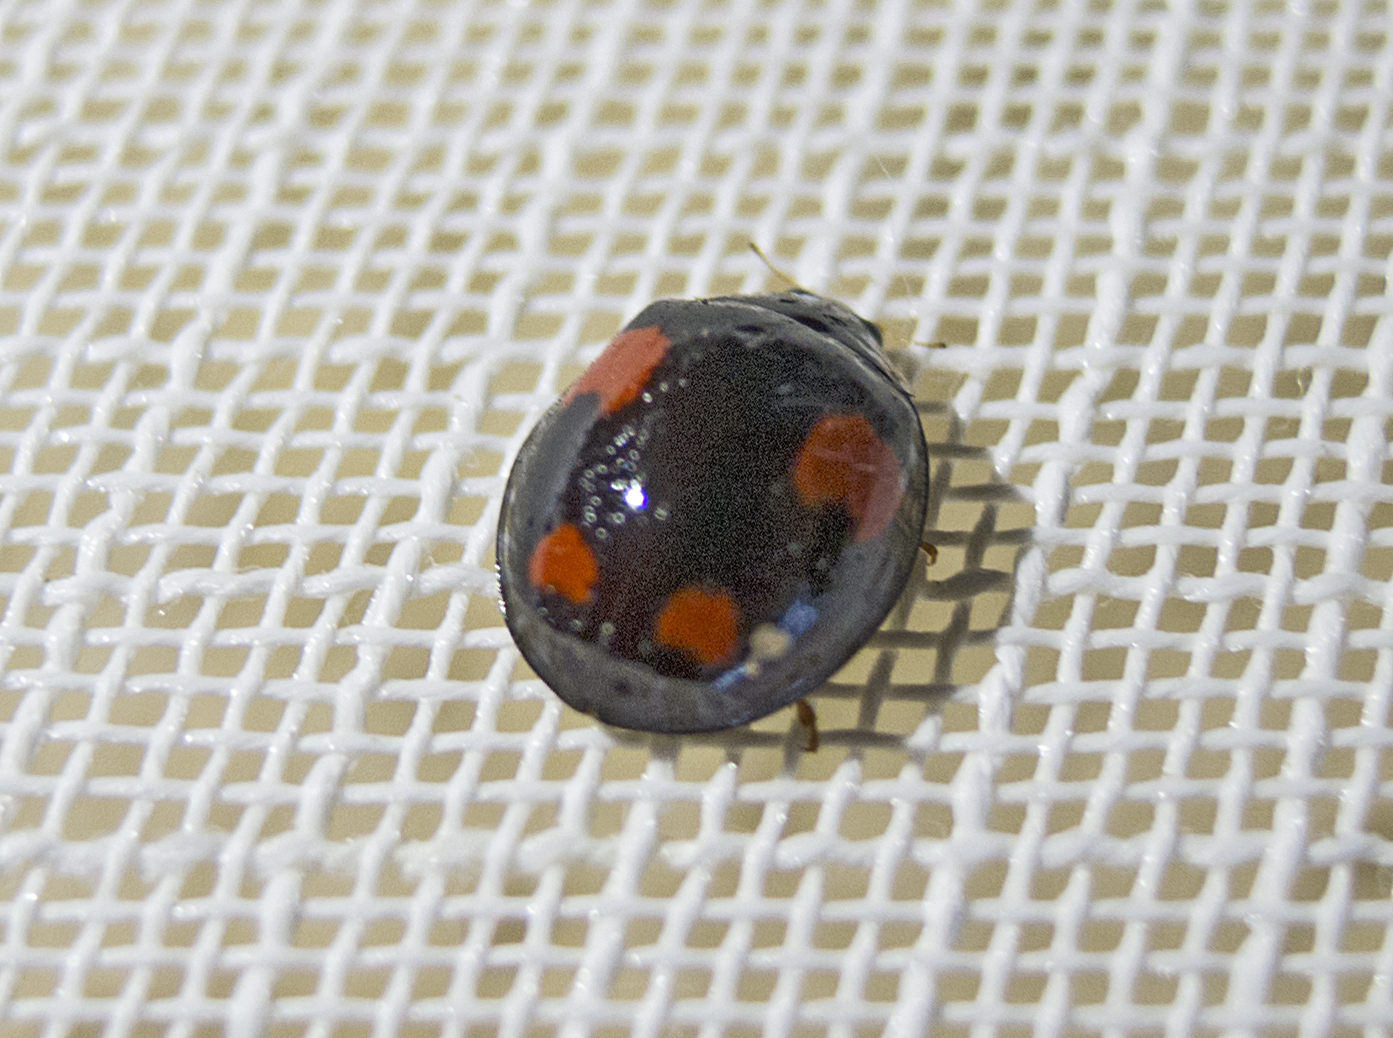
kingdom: Animalia
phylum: Arthropoda
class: Insecta
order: Coleoptera
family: Coccinellidae
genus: Harmonia
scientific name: Harmonia axyridis
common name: Harlequin ladybird
